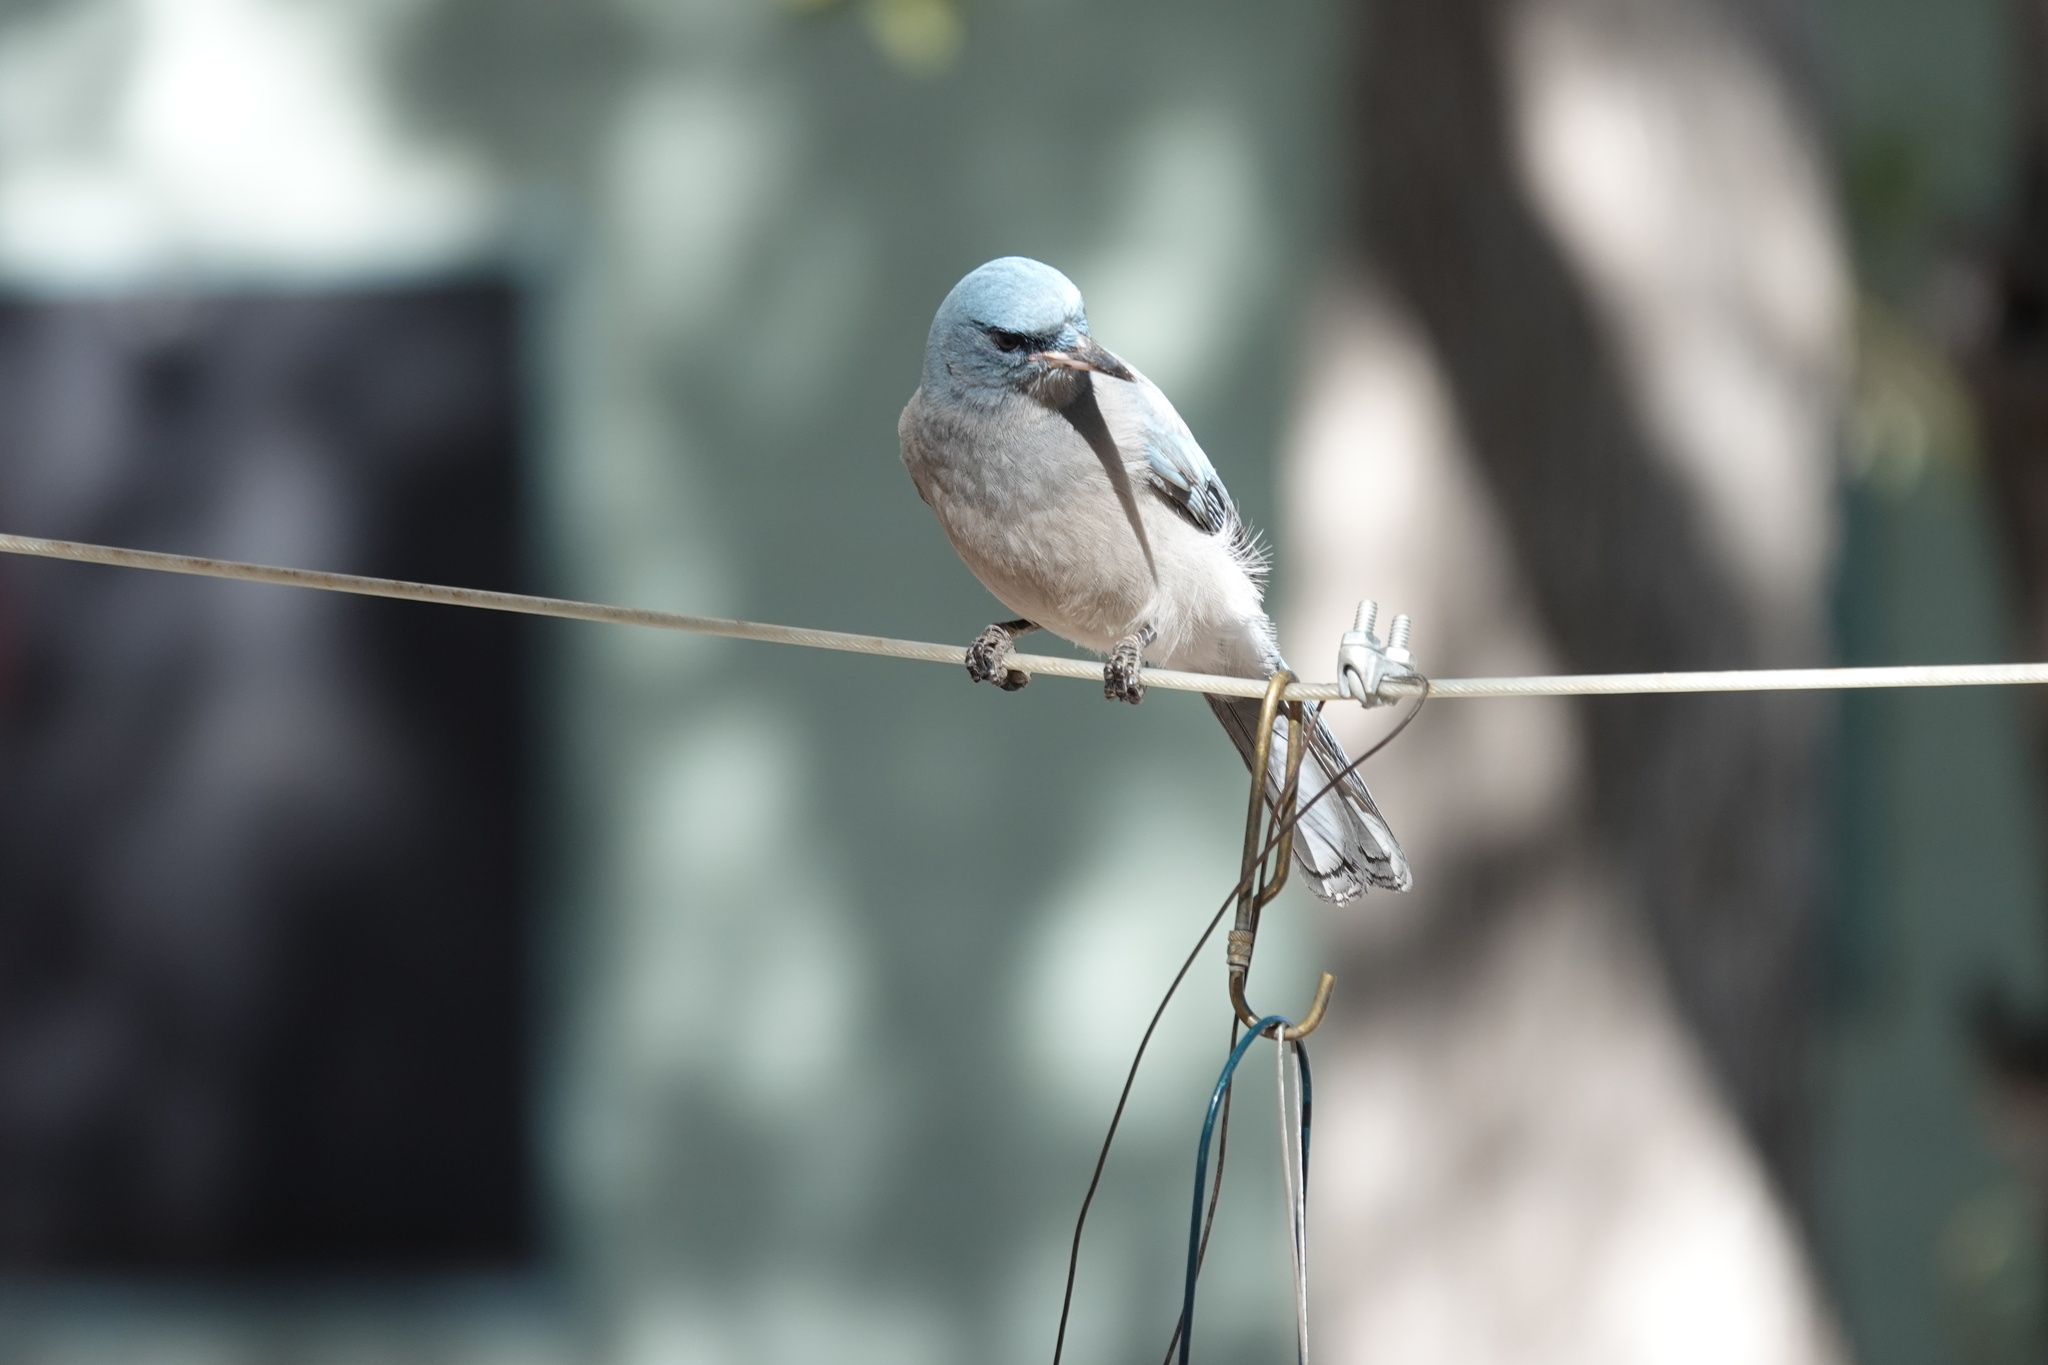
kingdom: Animalia
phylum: Chordata
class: Aves
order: Passeriformes
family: Corvidae
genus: Aphelocoma
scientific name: Aphelocoma wollweberi
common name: Mexican jay
